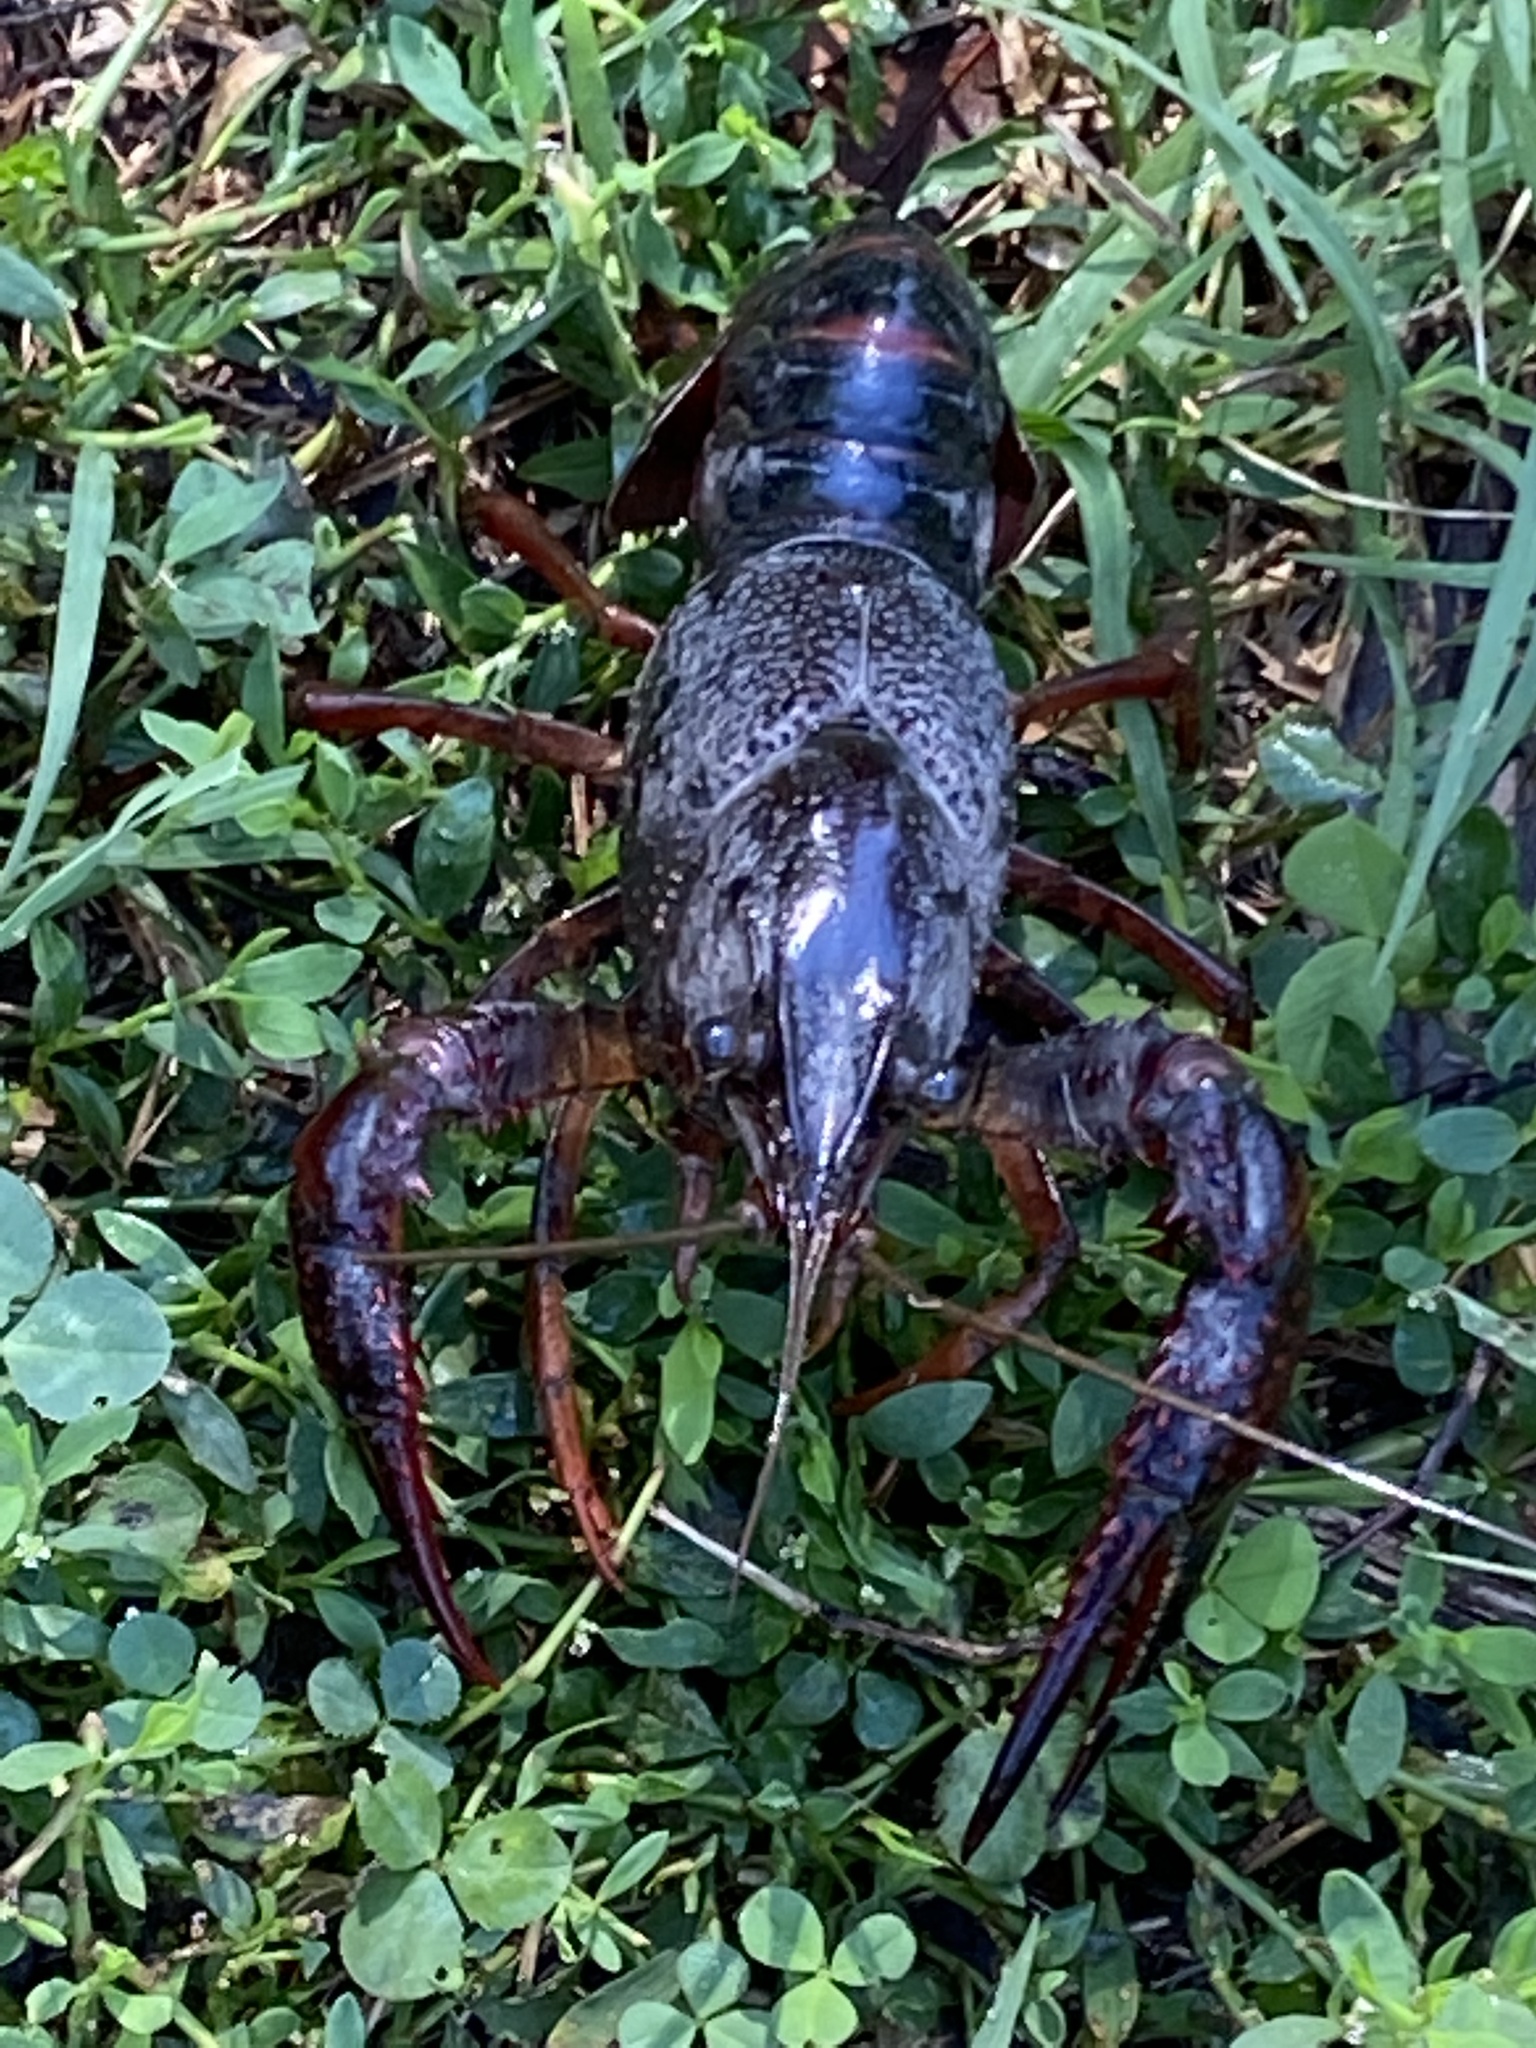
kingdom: Animalia
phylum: Arthropoda
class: Malacostraca
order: Decapoda
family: Cambaridae
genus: Procambarus
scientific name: Procambarus clarkii
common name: Red swamp crayfish
